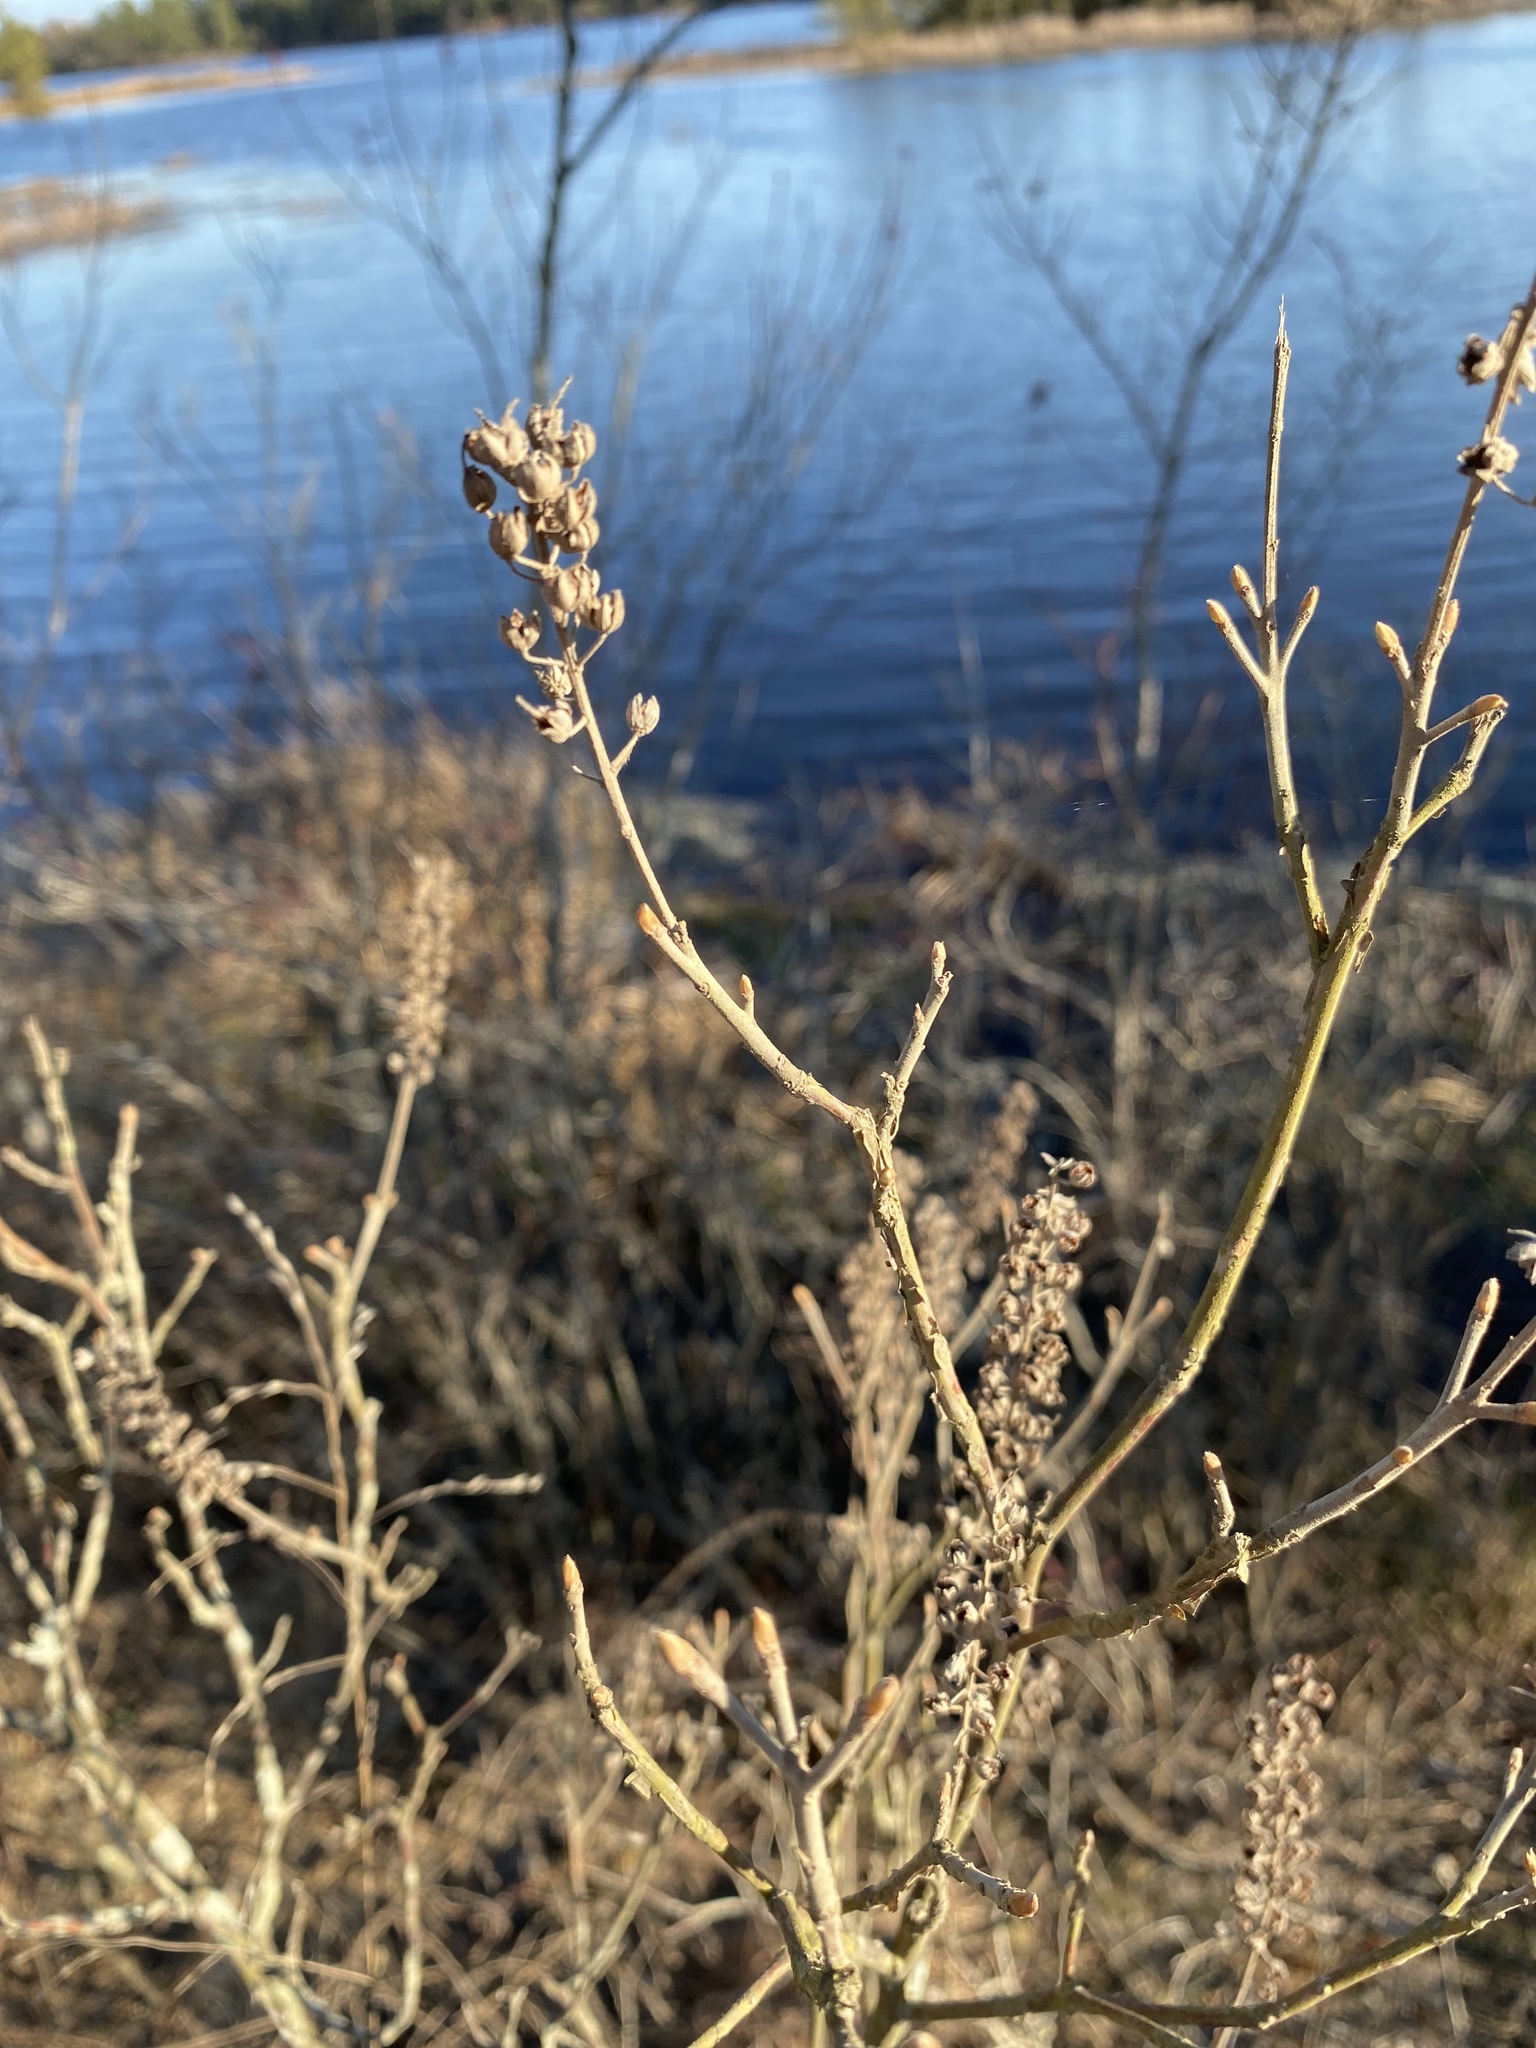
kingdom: Plantae
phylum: Tracheophyta
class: Magnoliopsida
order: Ericales
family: Clethraceae
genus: Clethra
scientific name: Clethra alnifolia
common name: Sweet pepperbush
